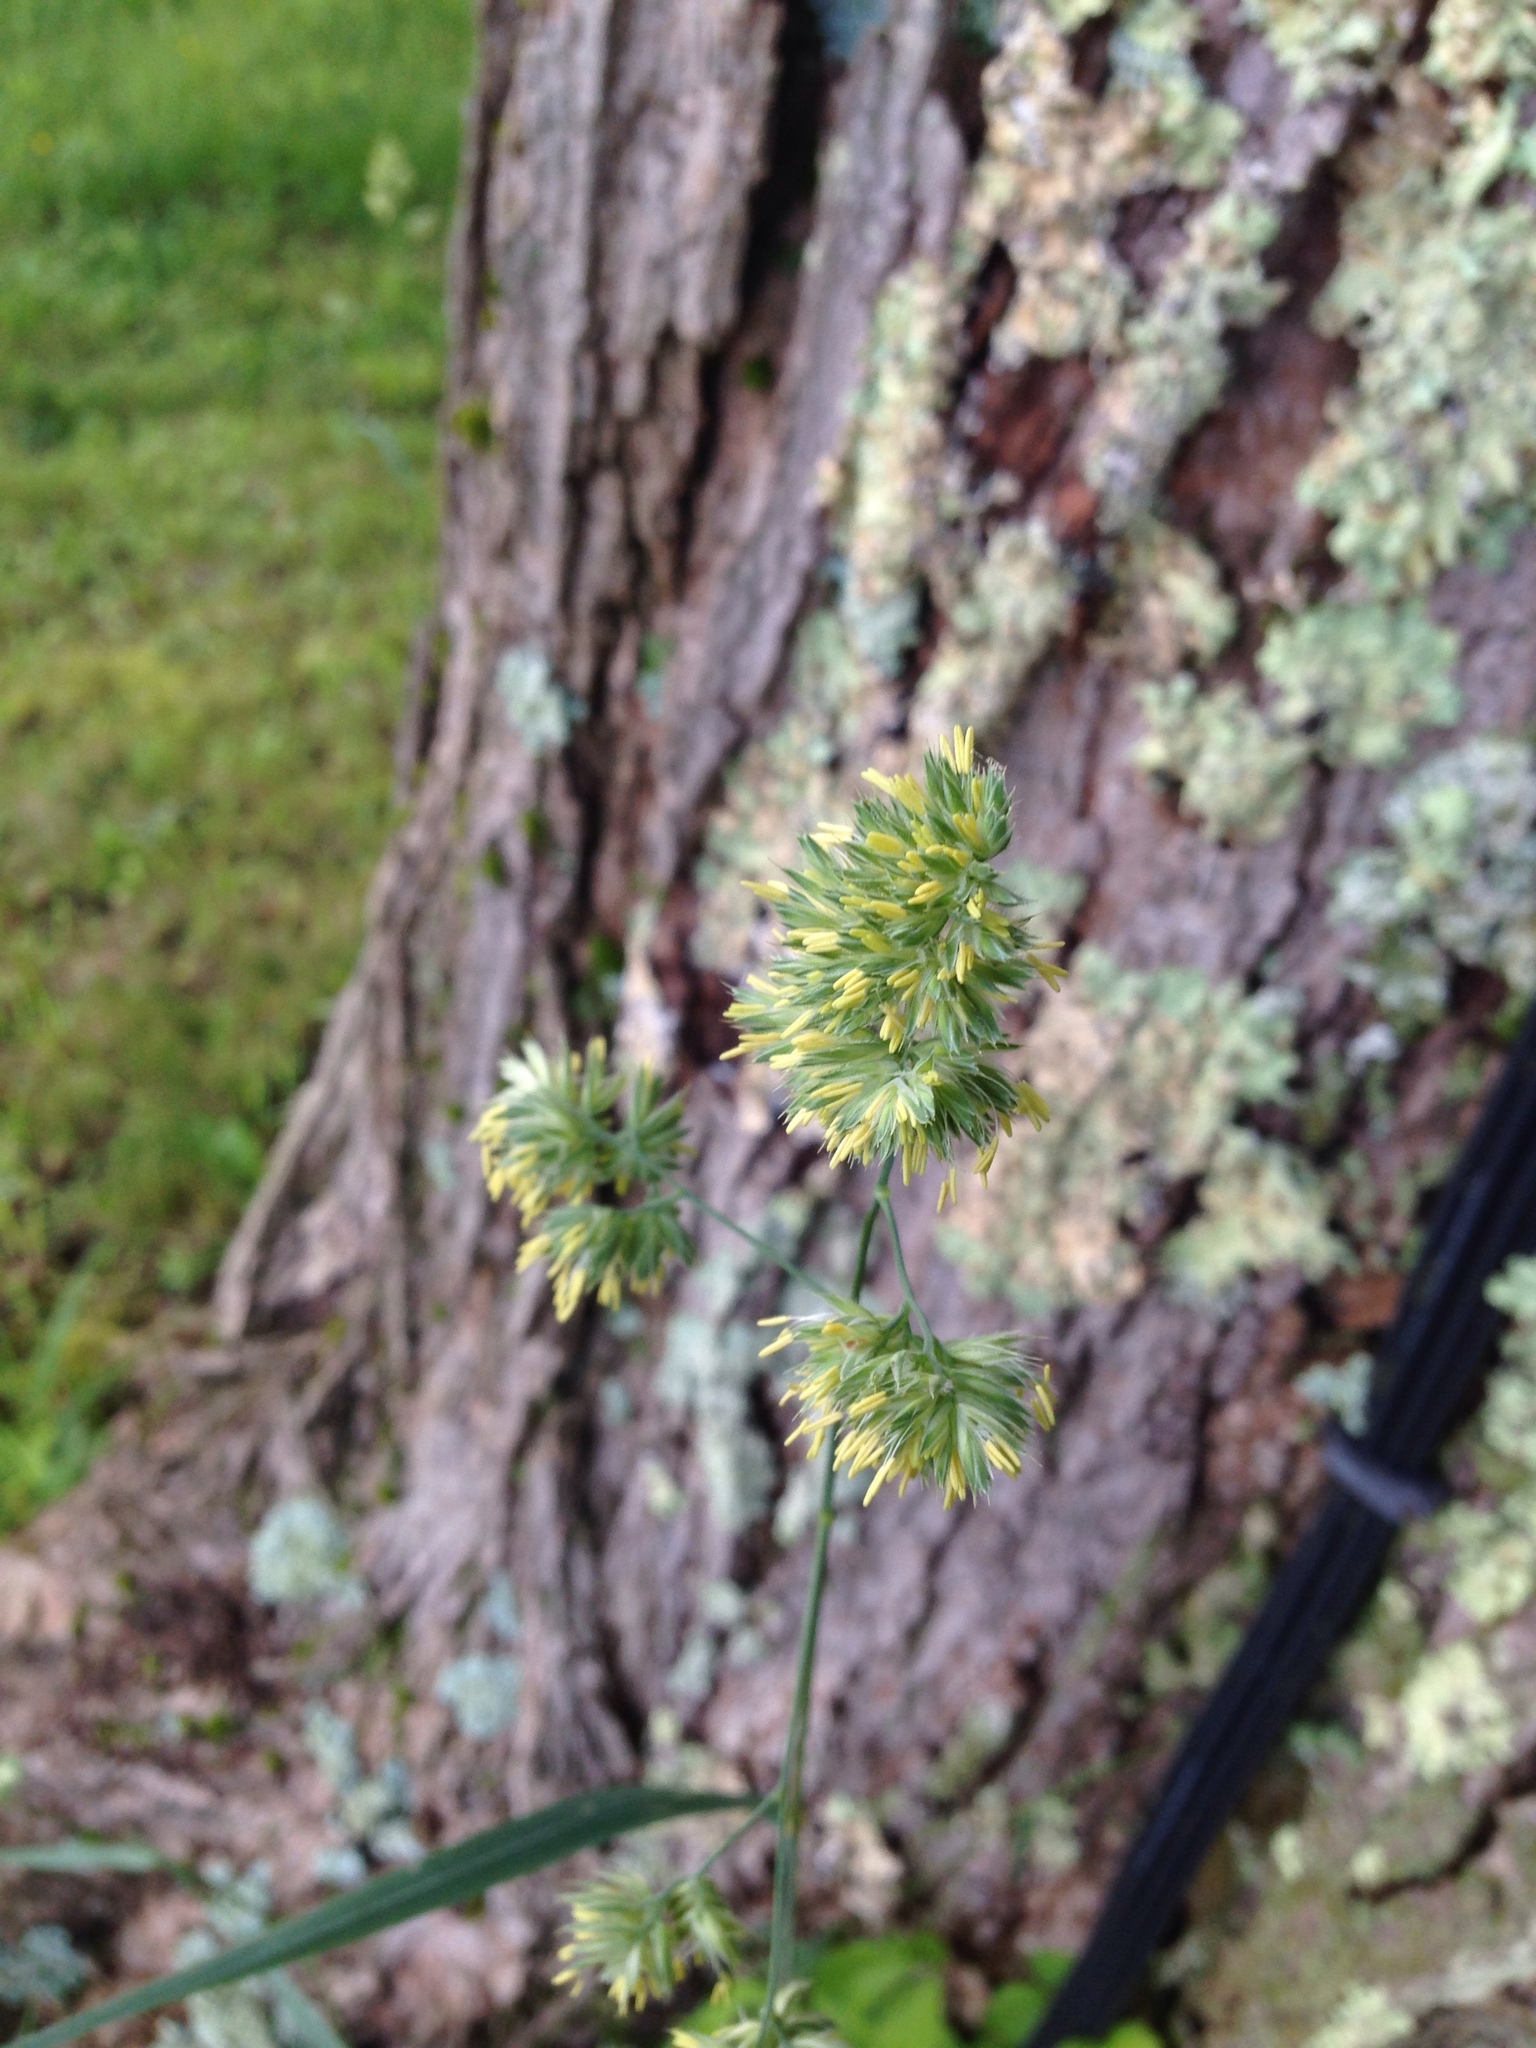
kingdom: Plantae
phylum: Tracheophyta
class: Liliopsida
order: Poales
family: Poaceae
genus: Dactylis
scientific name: Dactylis glomerata
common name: Orchardgrass
